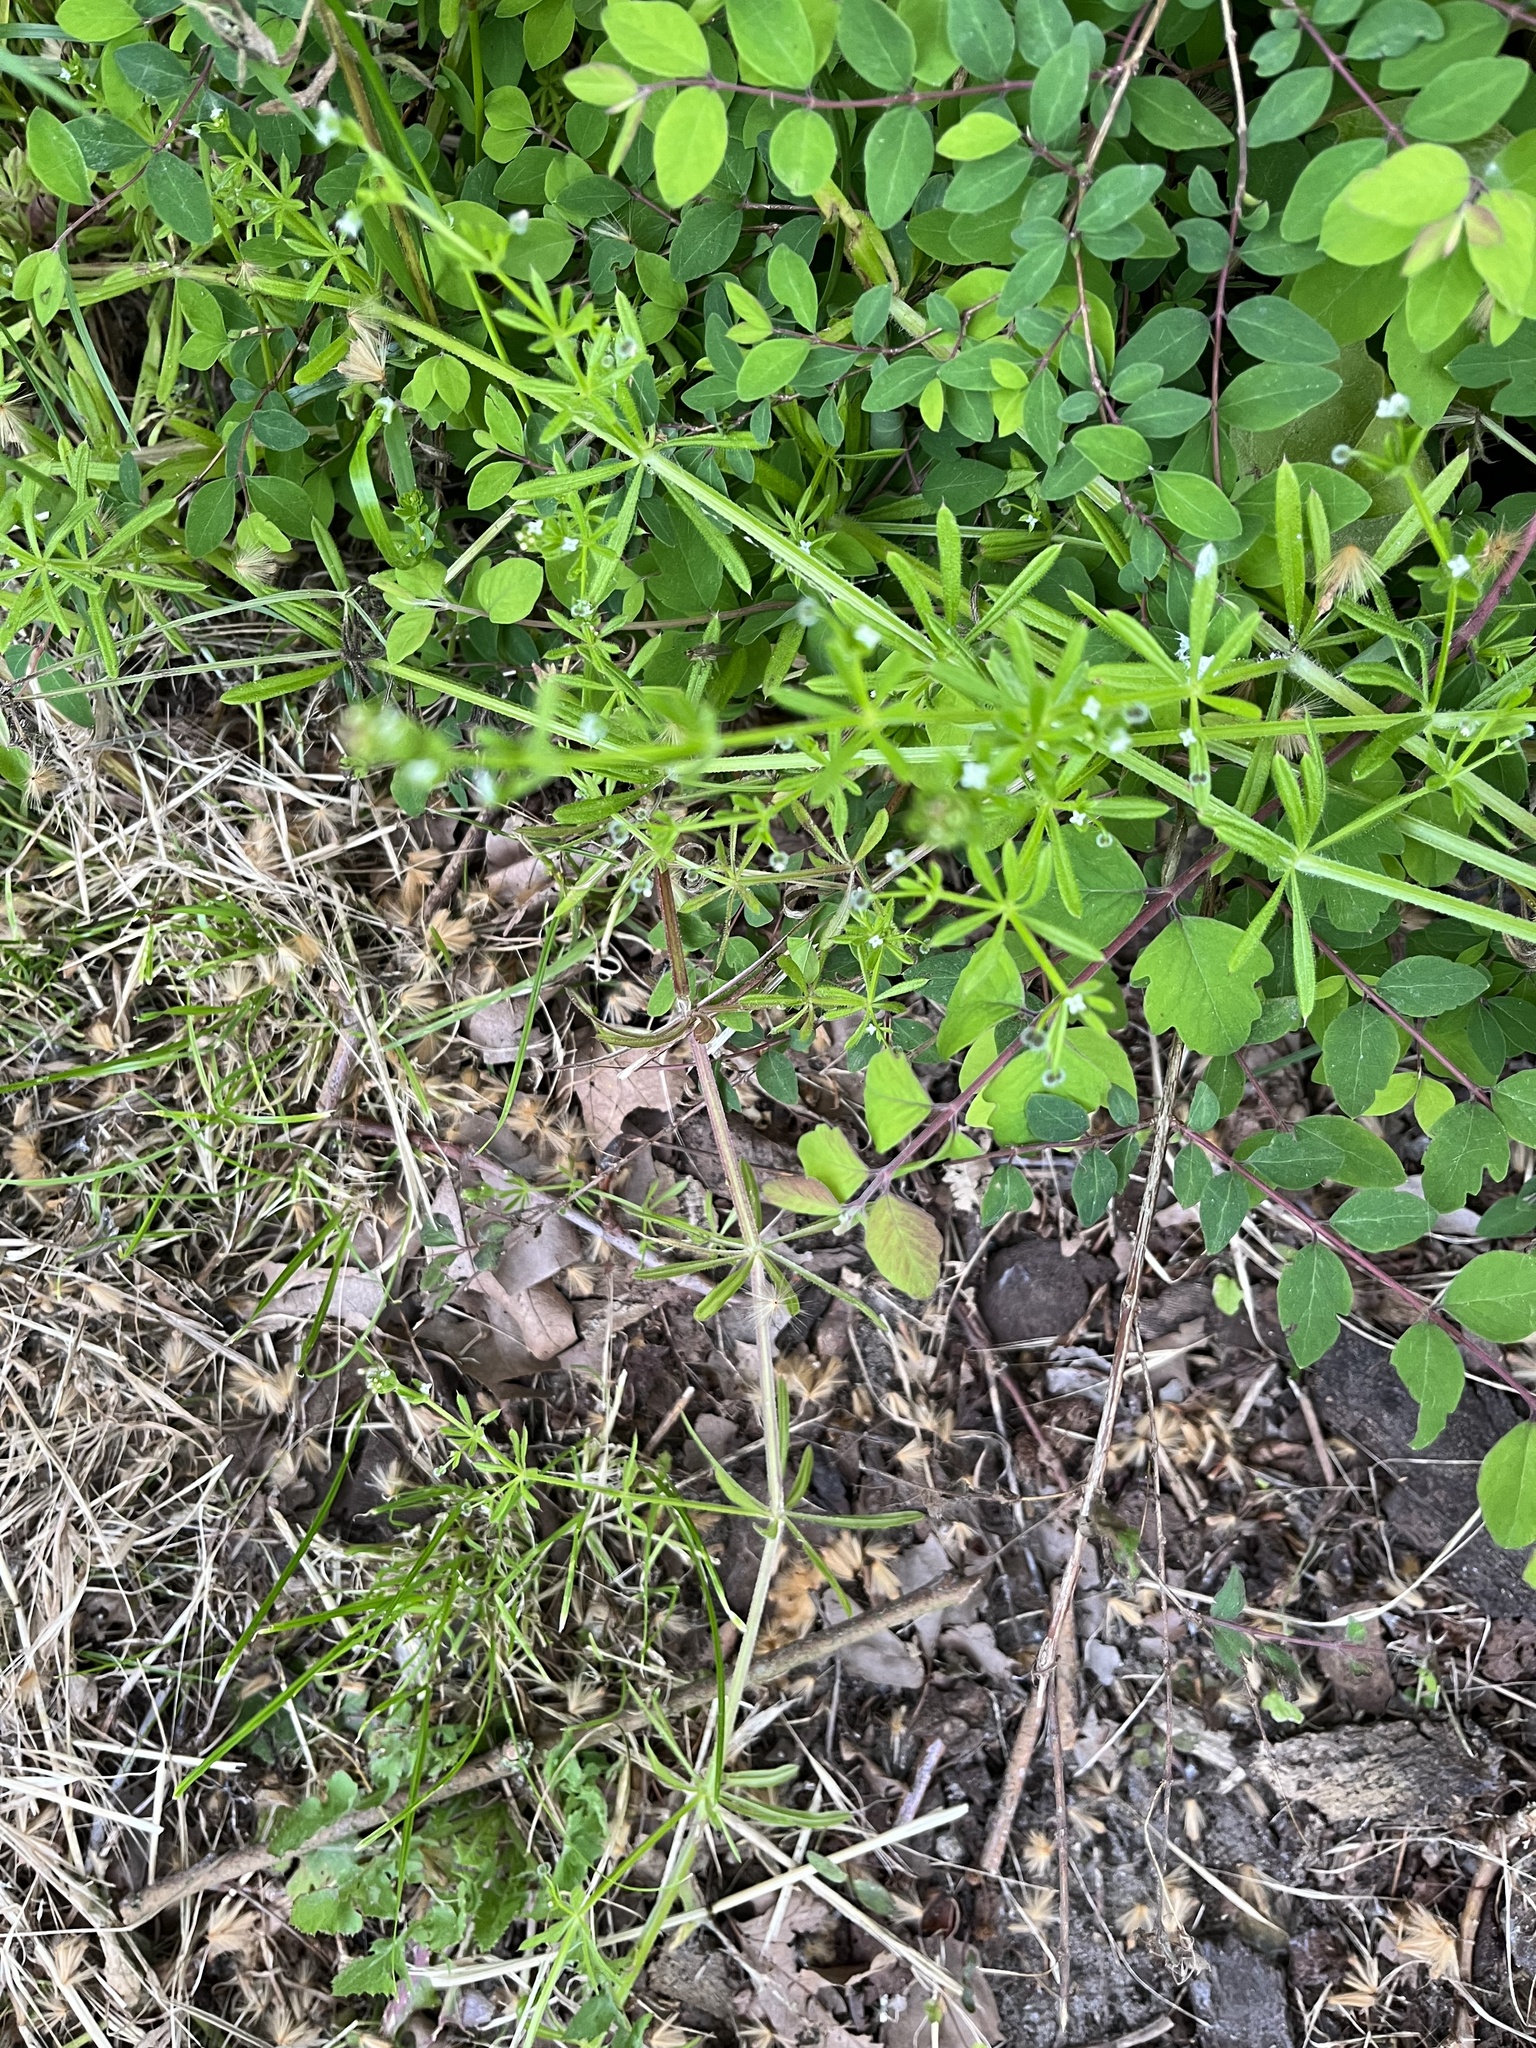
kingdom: Plantae
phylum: Tracheophyta
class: Magnoliopsida
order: Gentianales
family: Rubiaceae
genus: Galium
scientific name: Galium aparine
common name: Cleavers
